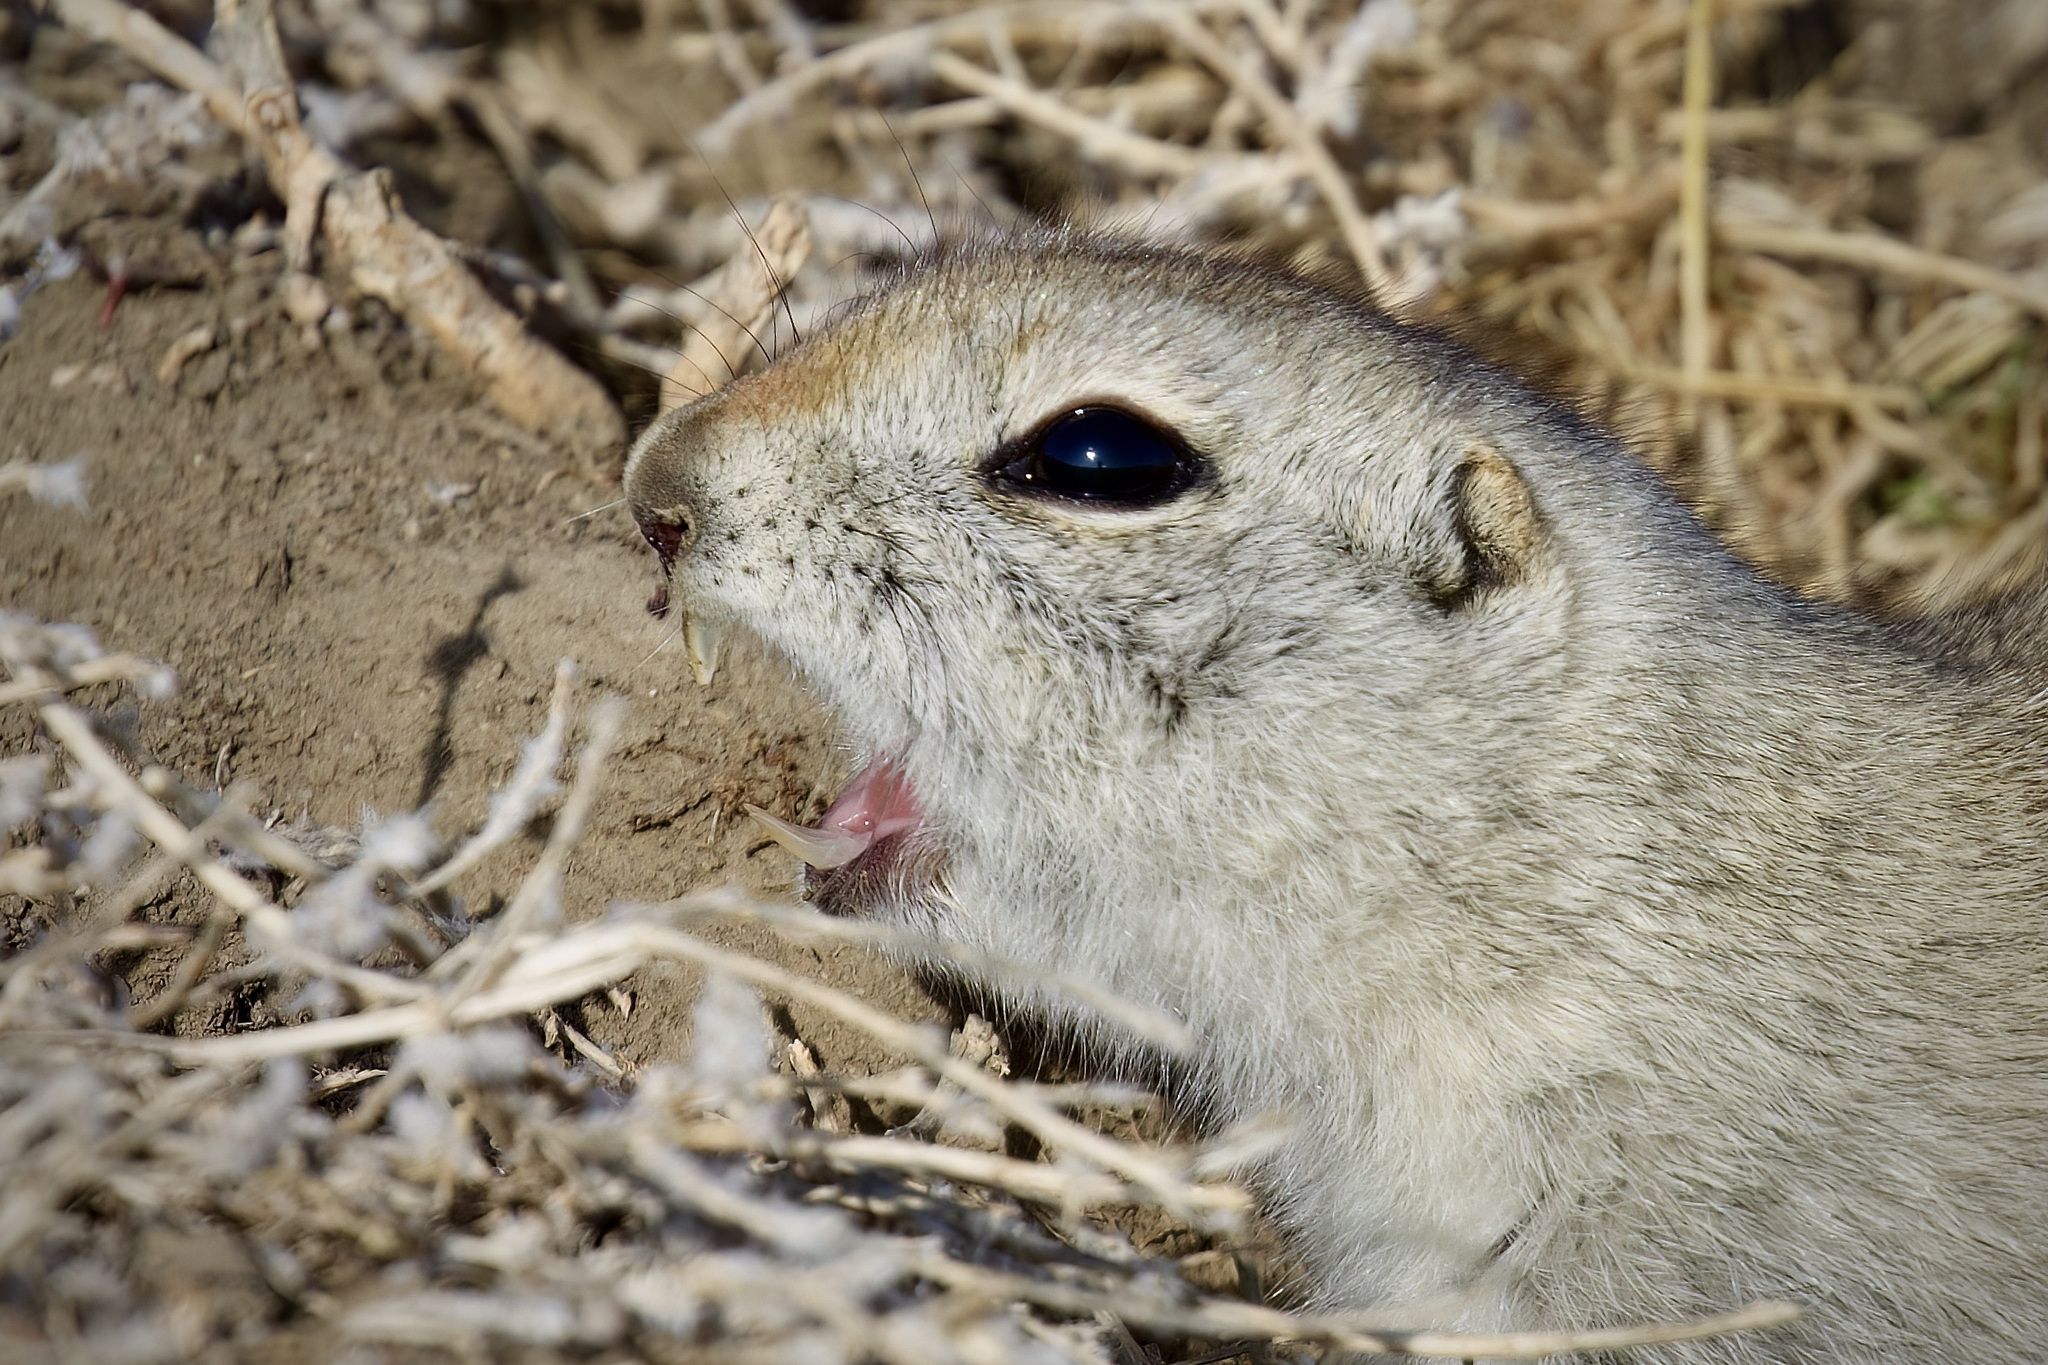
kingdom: Animalia
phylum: Chordata
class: Mammalia
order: Rodentia
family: Sciuridae
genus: Urocitellus
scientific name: Urocitellus richardsonii
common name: Richardson's ground squirrel
